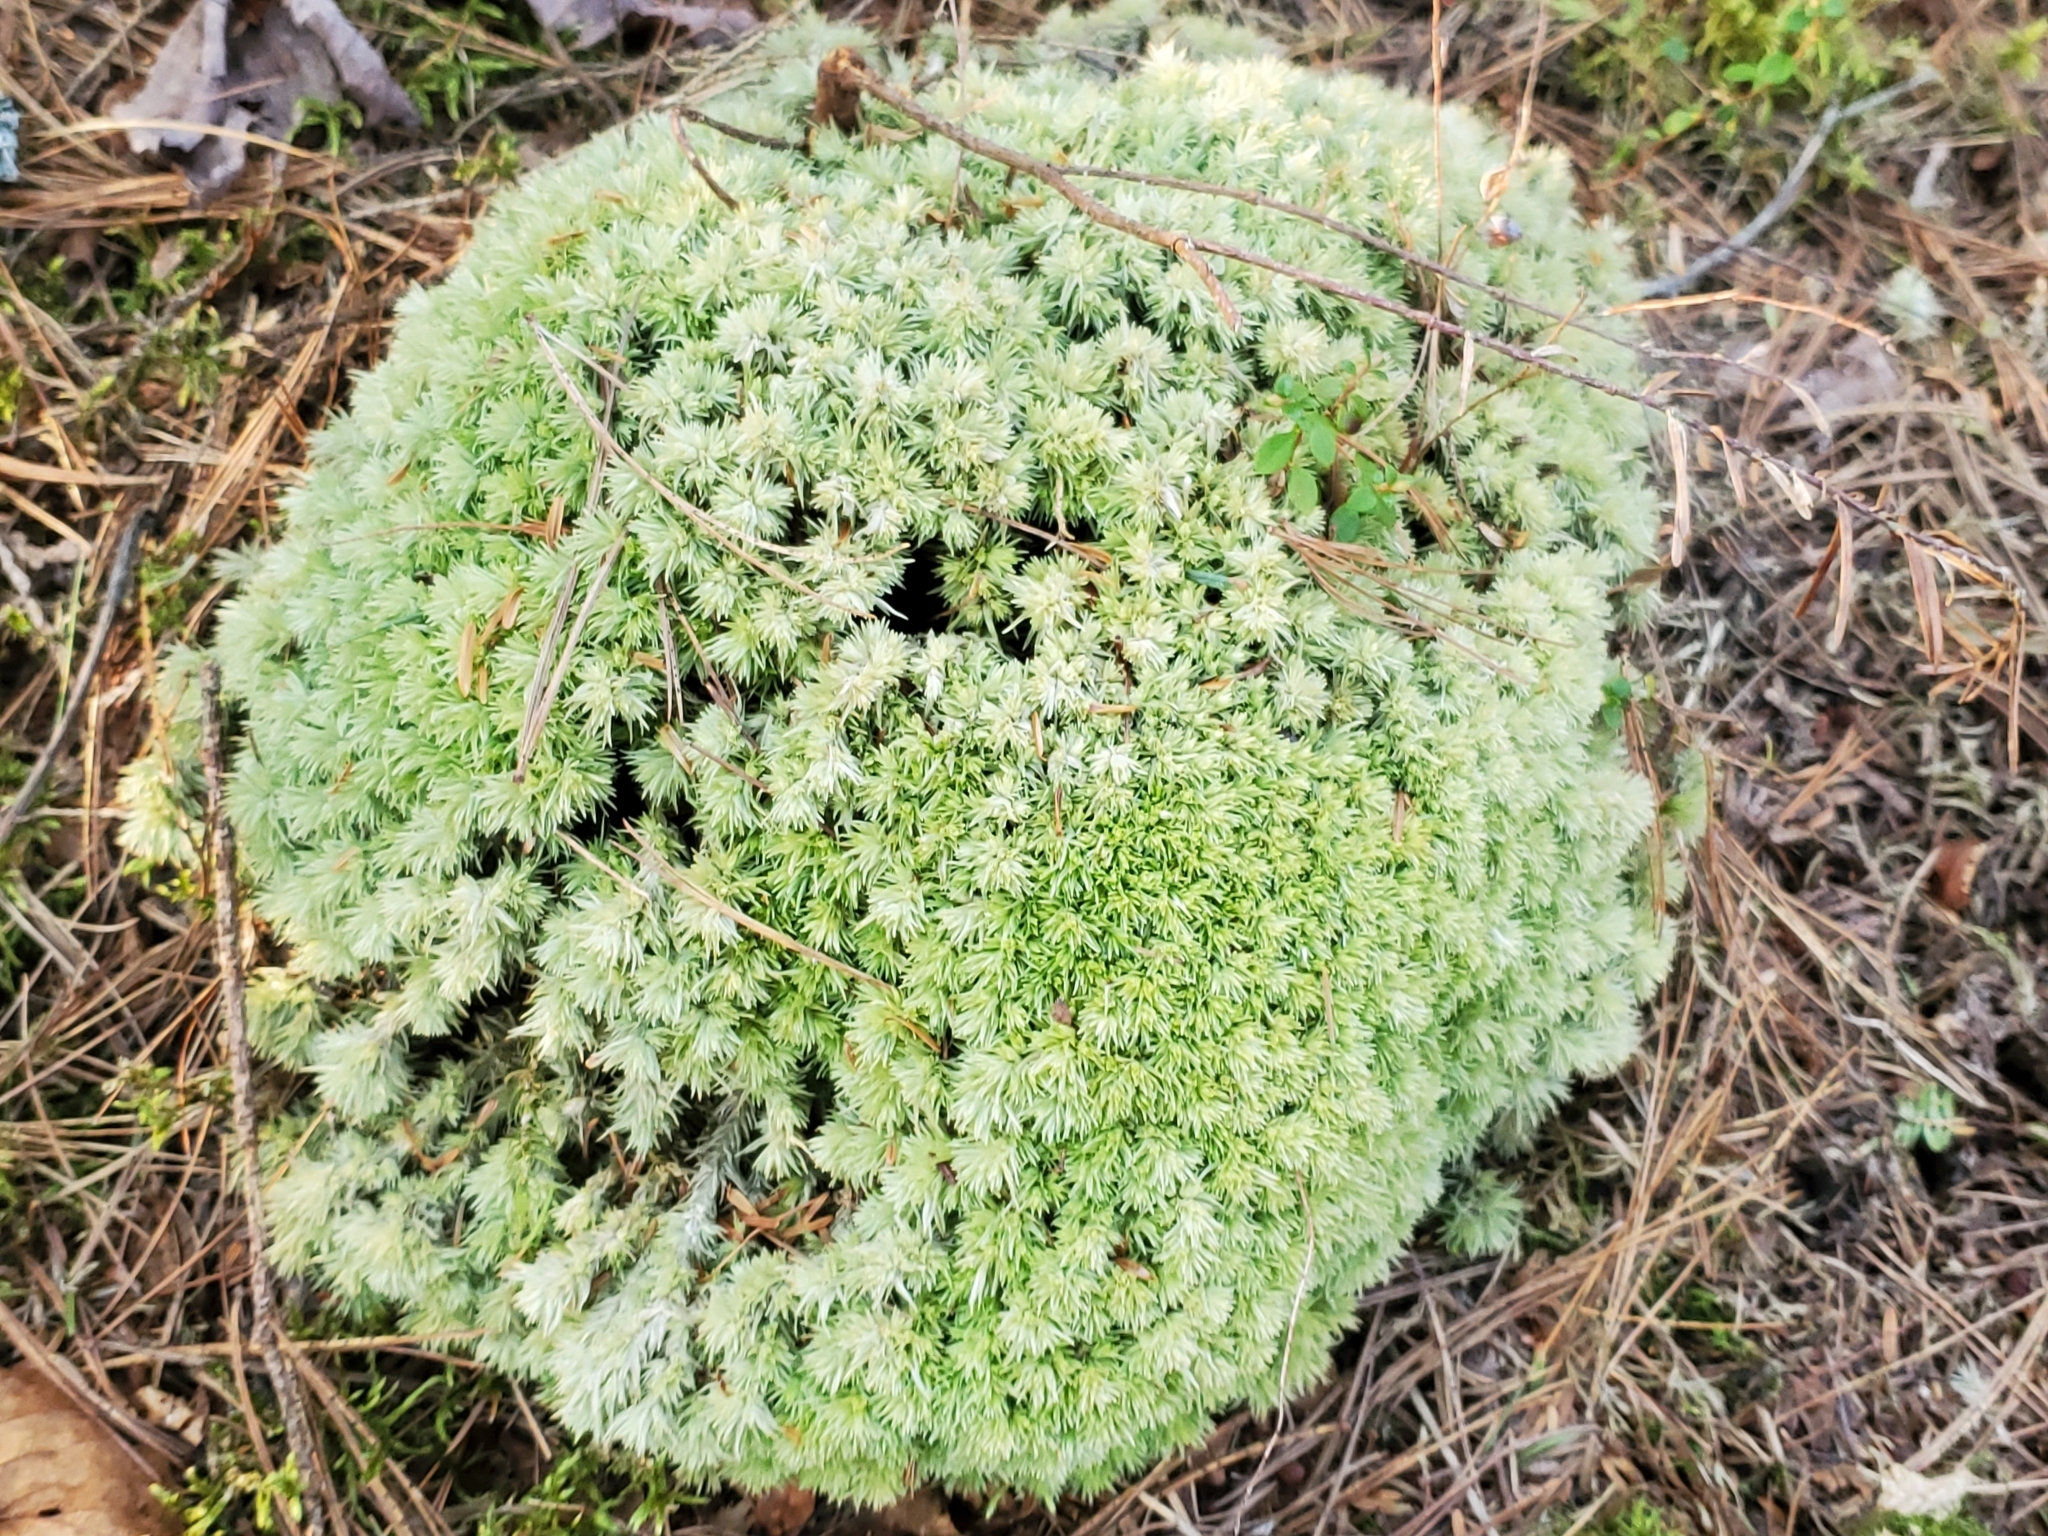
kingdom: Plantae
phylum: Bryophyta
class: Bryopsida
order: Dicranales
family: Leucobryaceae
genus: Leucobryum
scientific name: Leucobryum glaucum
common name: Large white-moss
